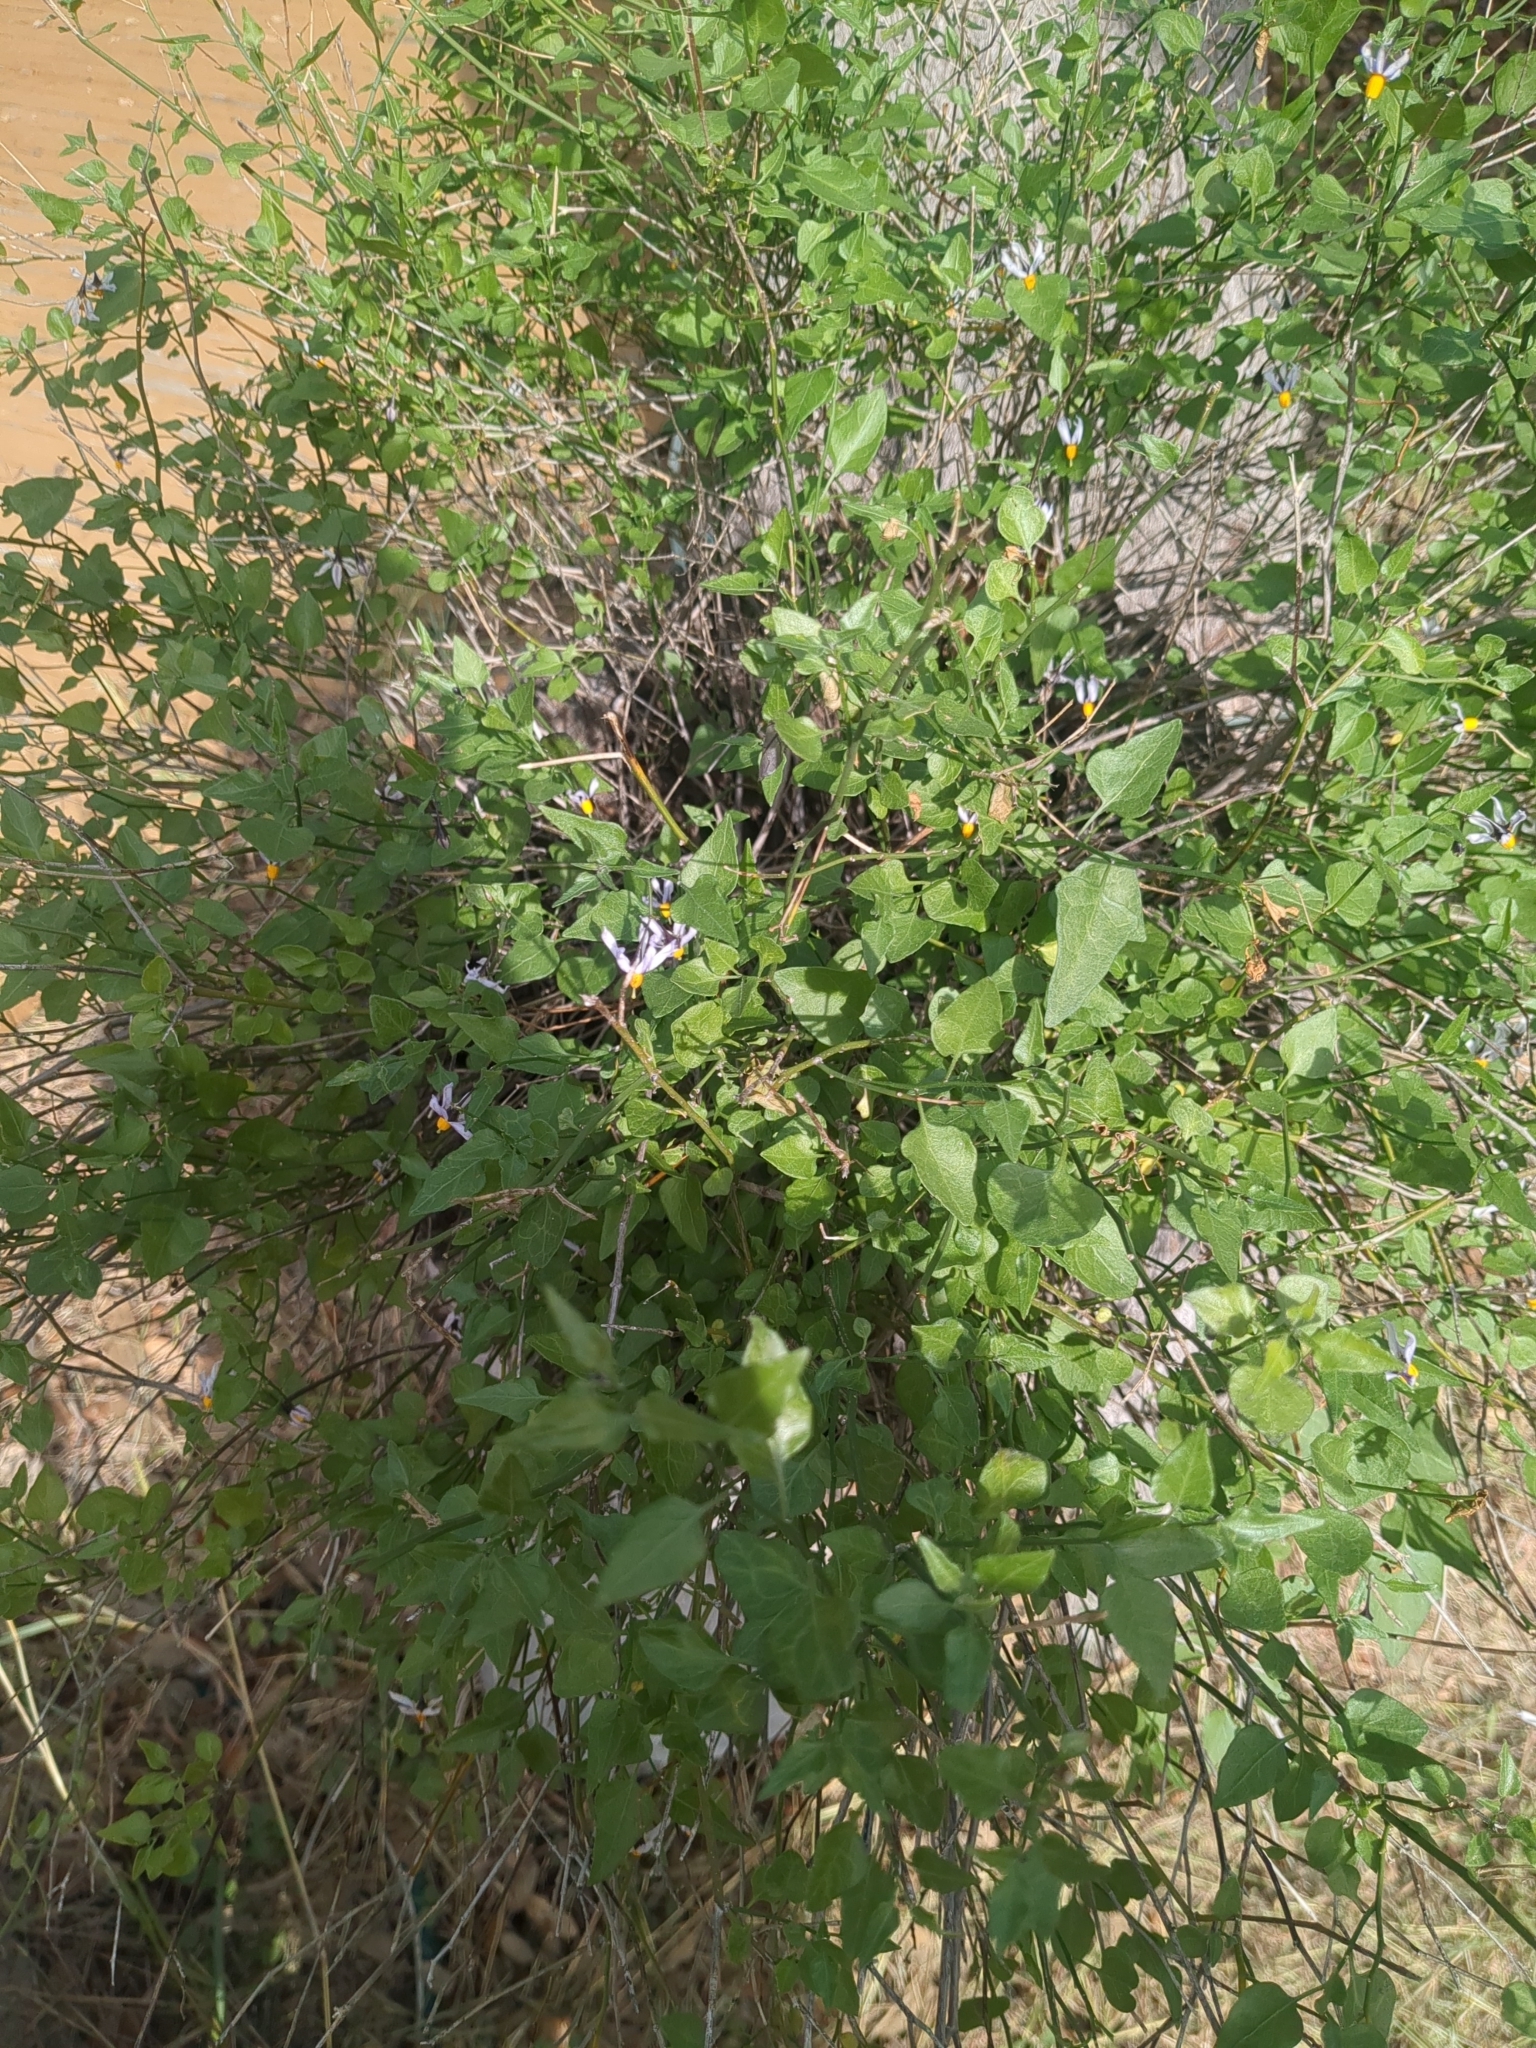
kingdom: Plantae
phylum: Tracheophyta
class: Magnoliopsida
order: Solanales
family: Solanaceae
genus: Solanum
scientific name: Solanum triquetrum
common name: Texas nightshade
